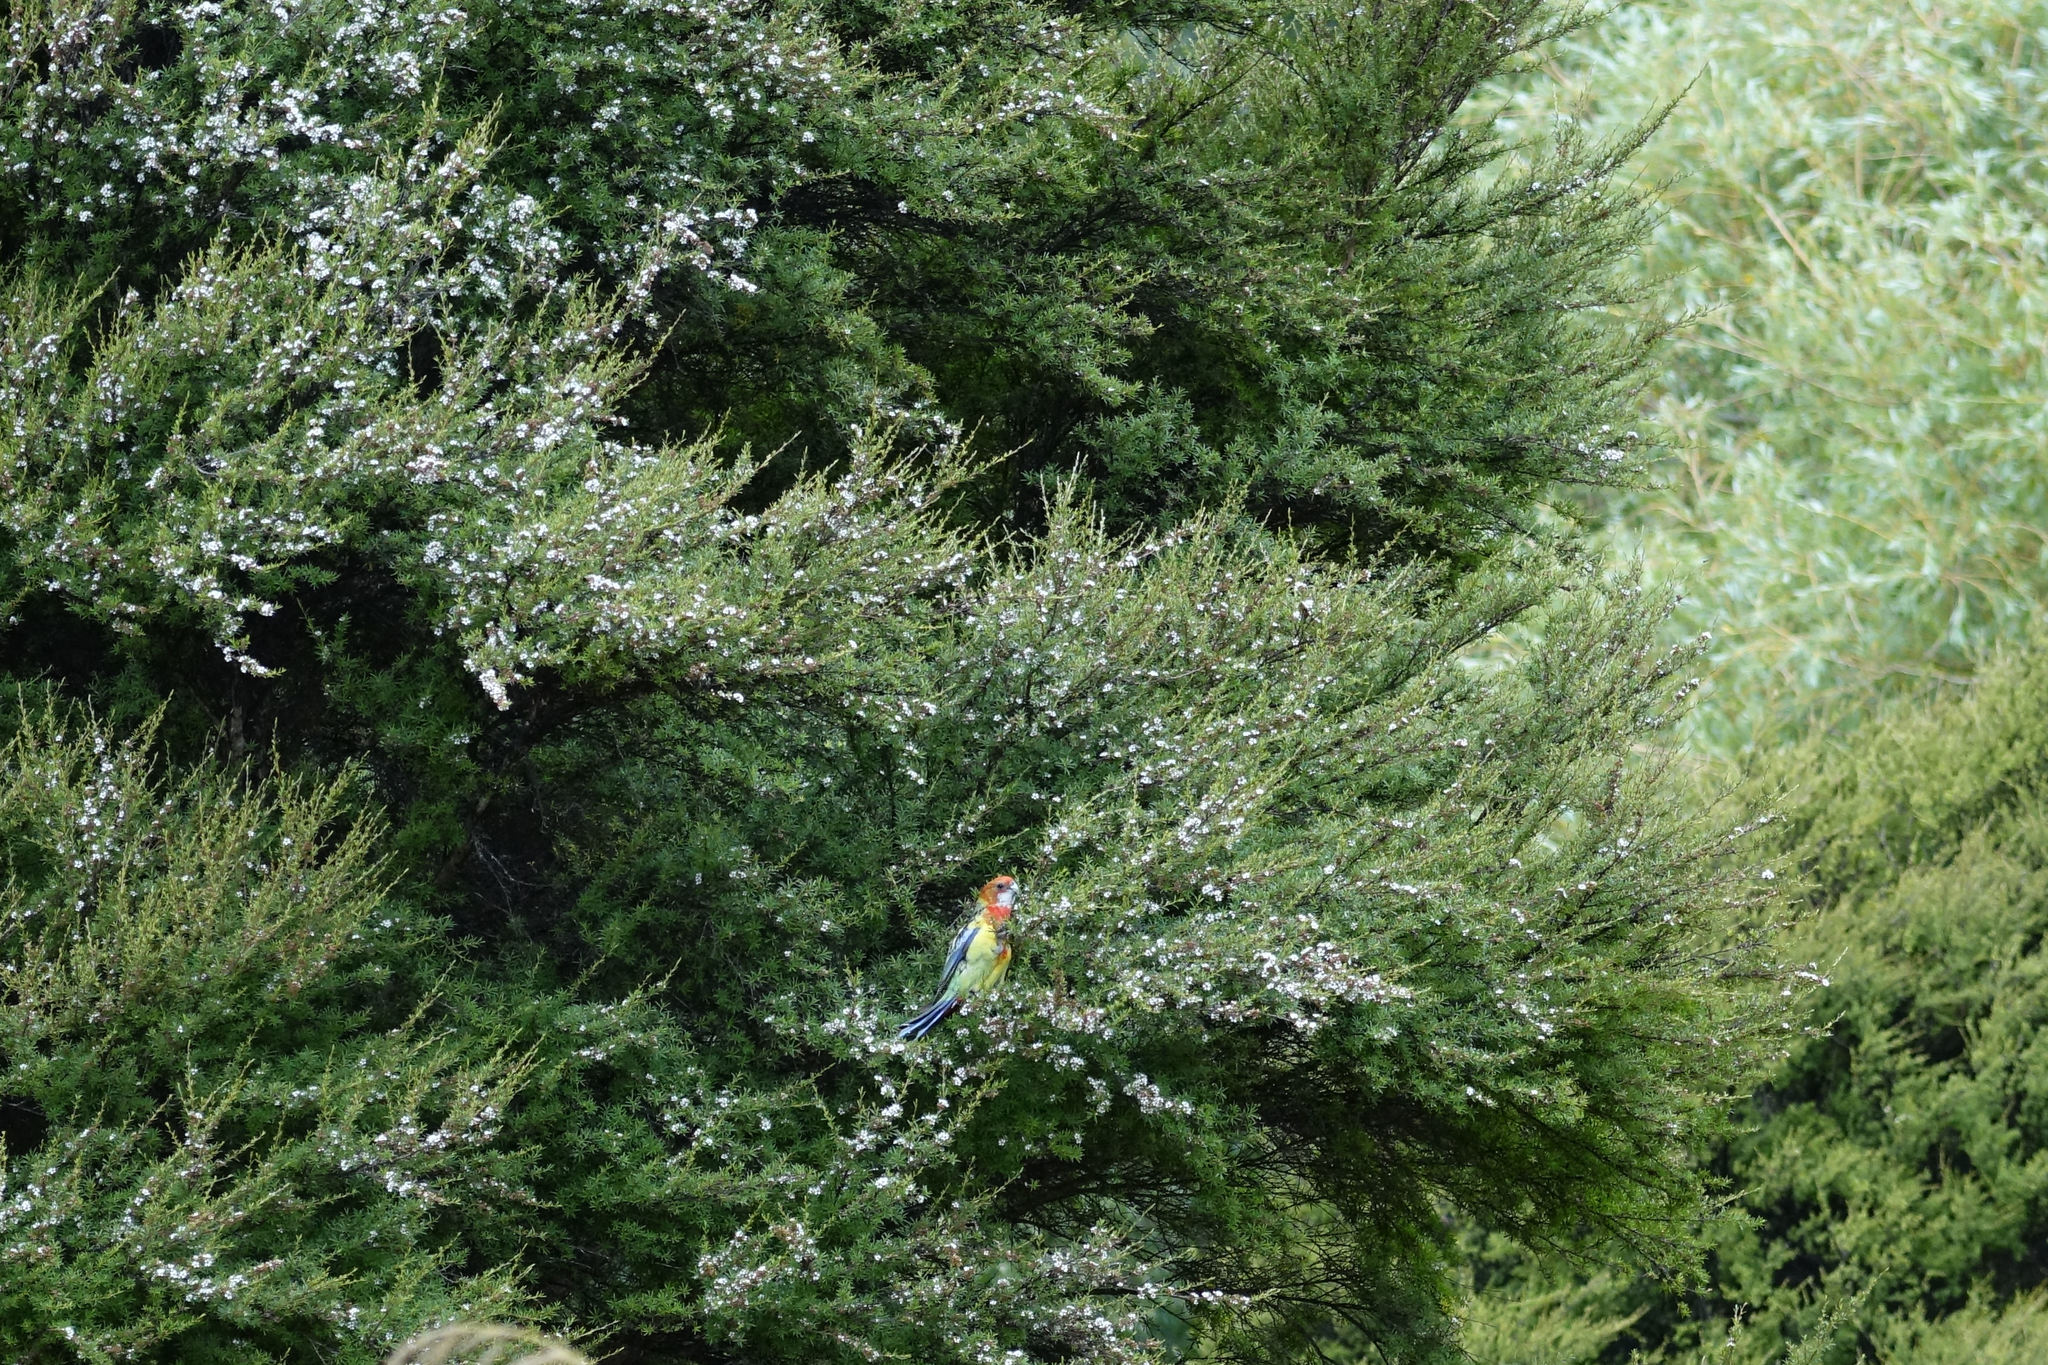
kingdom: Animalia
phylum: Chordata
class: Aves
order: Psittaciformes
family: Psittacidae
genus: Platycercus
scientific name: Platycercus eximius
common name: Eastern rosella
